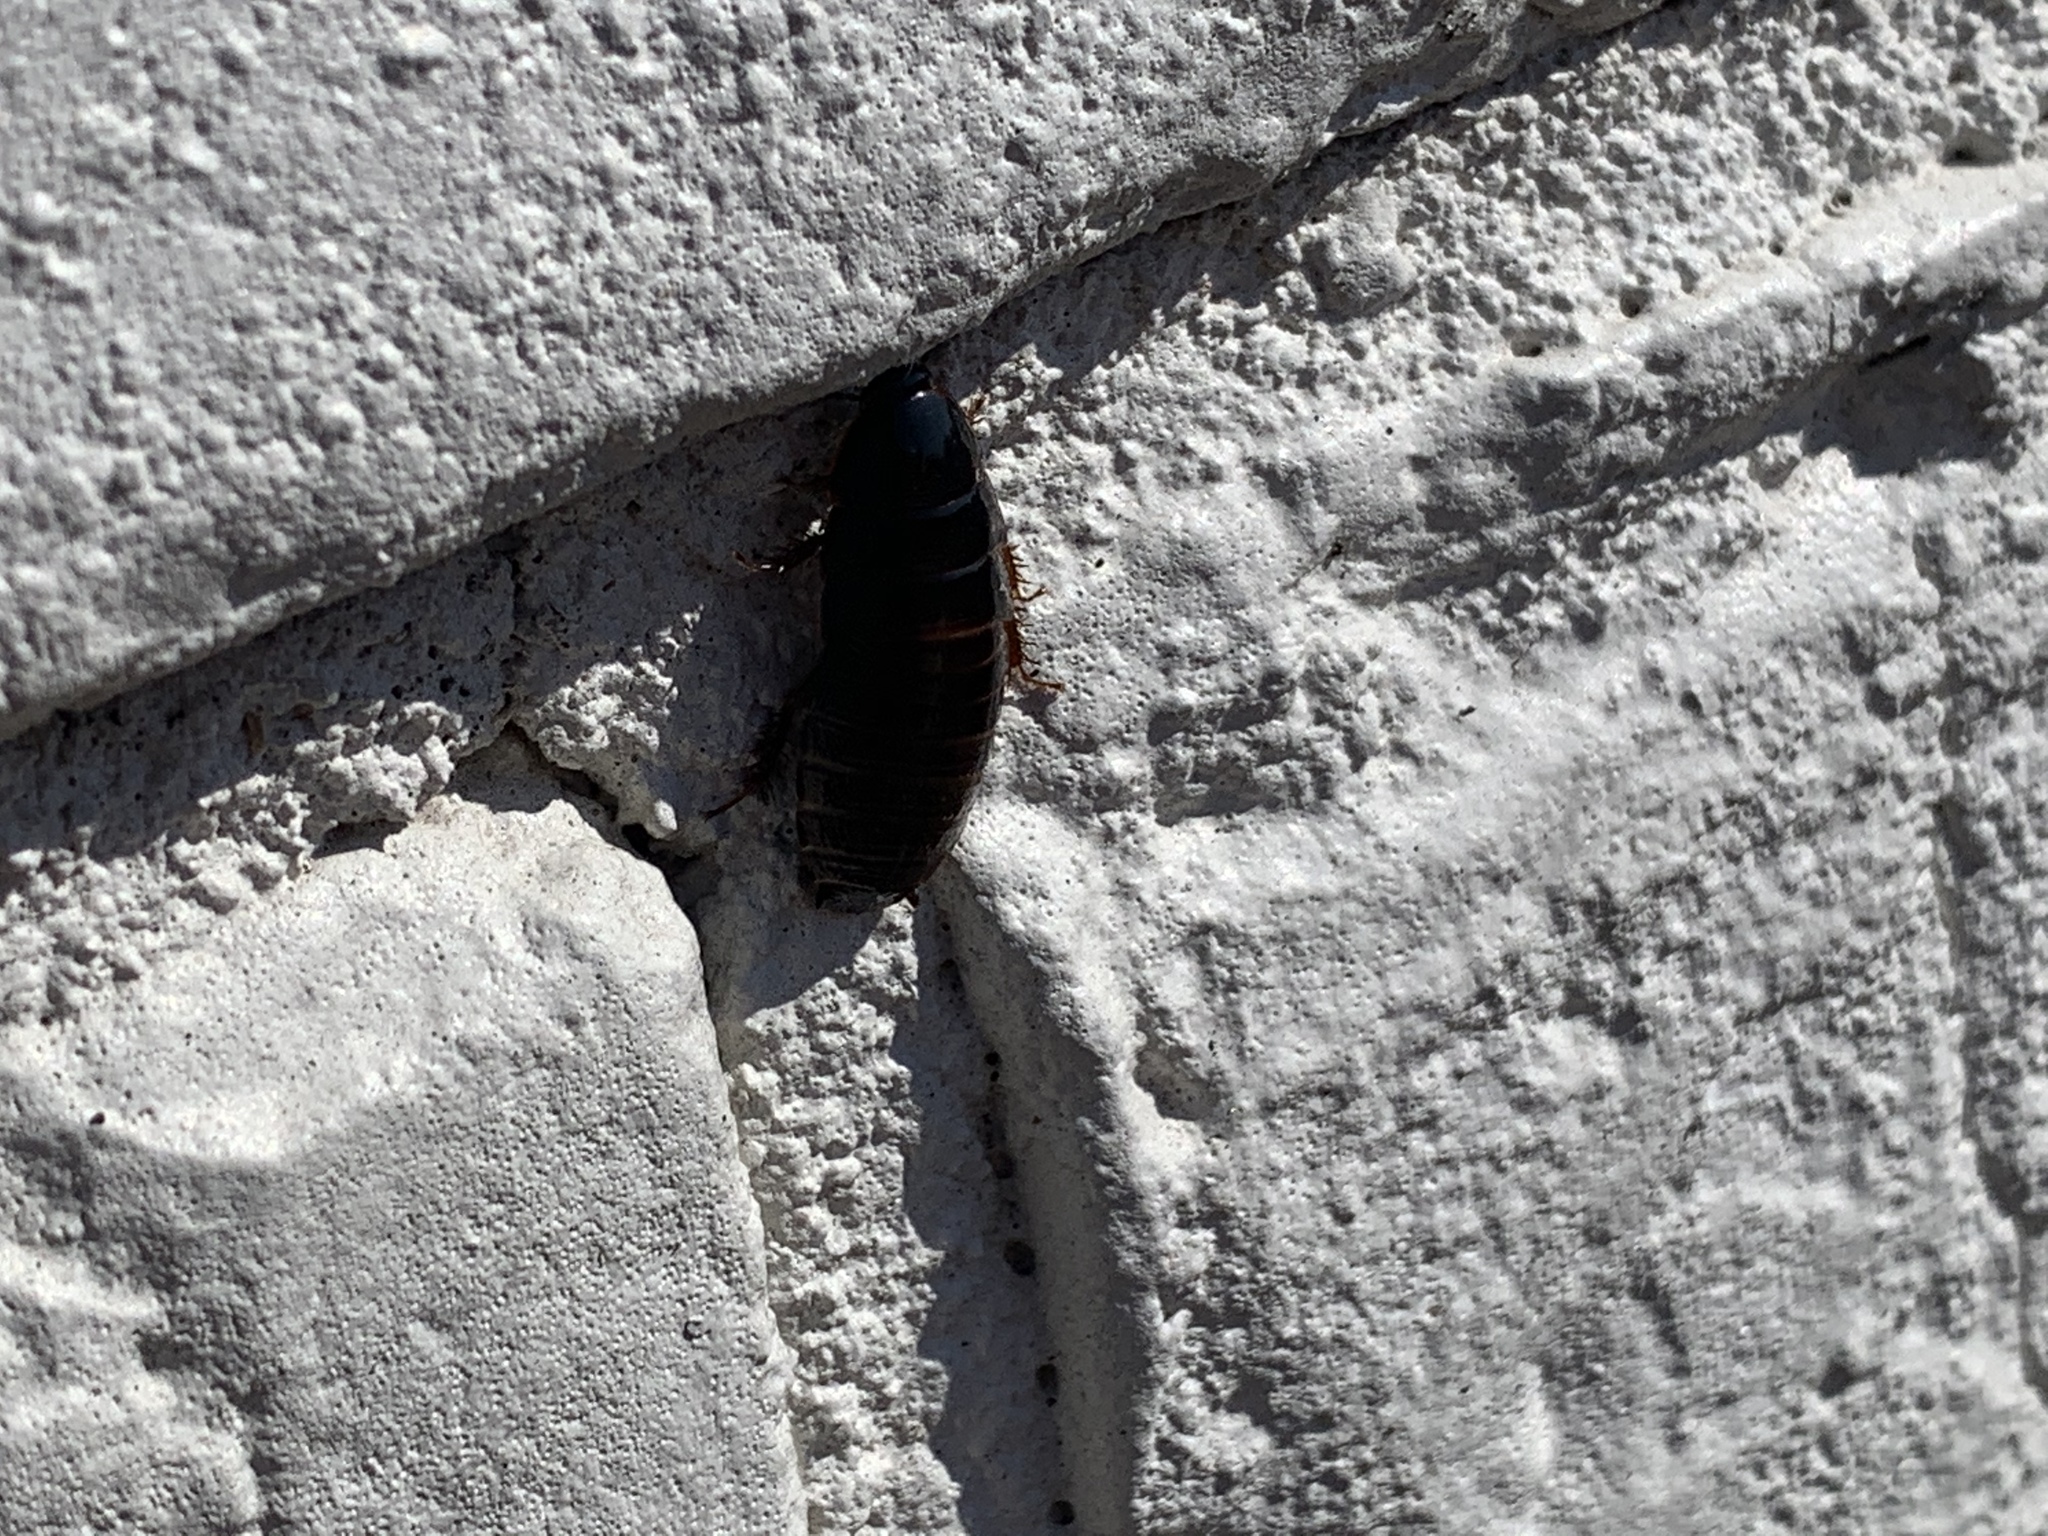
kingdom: Animalia
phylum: Arthropoda
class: Insecta
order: Blattodea
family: Blaberidae
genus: Pycnoscelus
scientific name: Pycnoscelus surinamensis
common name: Surinam cockroach
